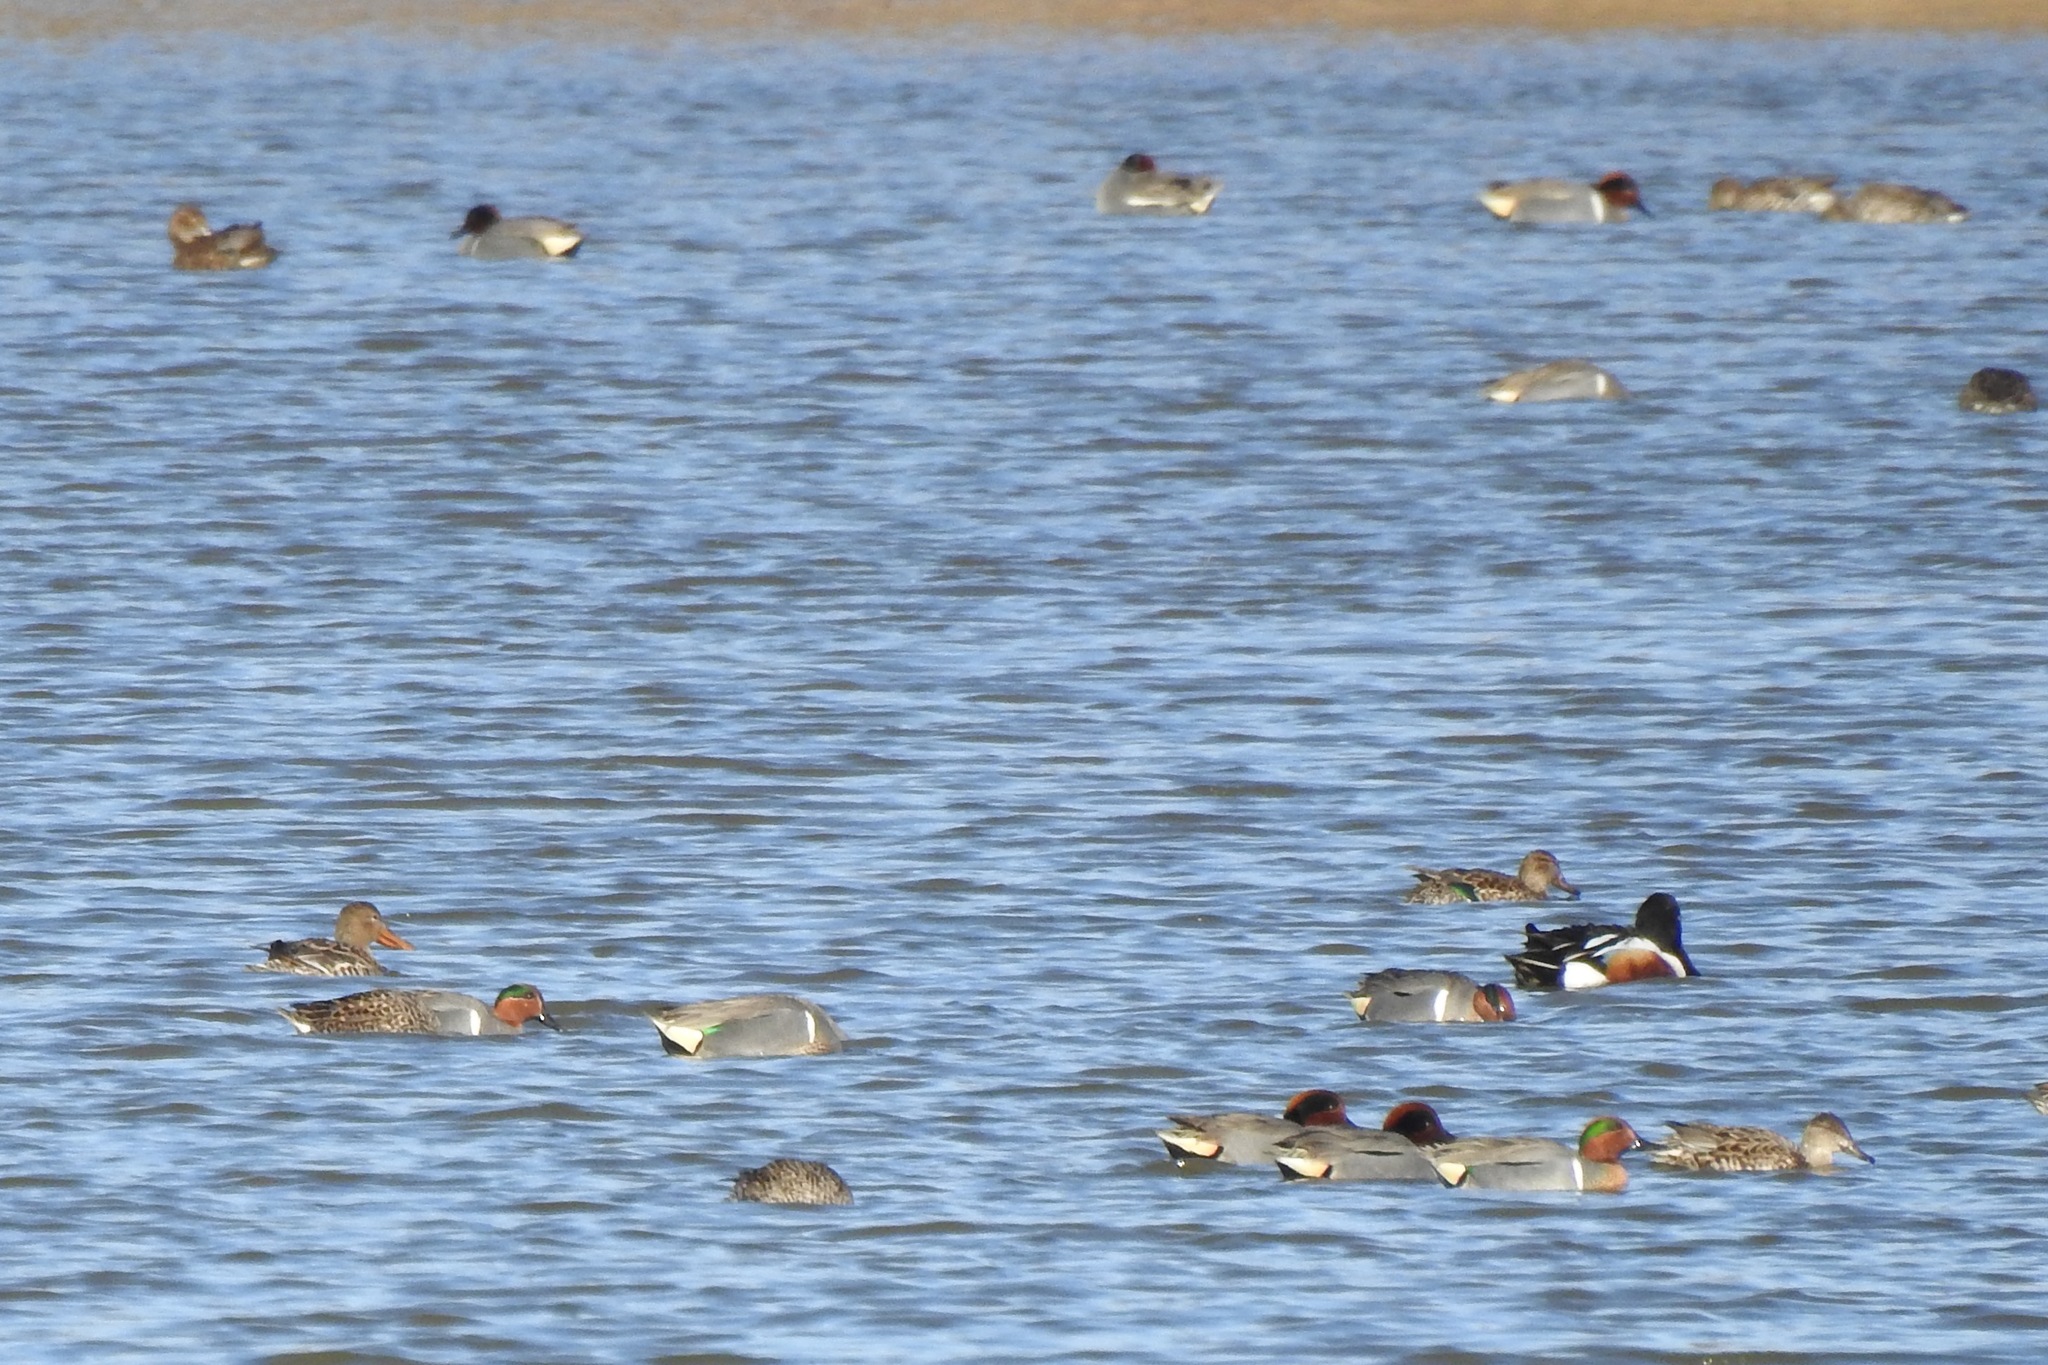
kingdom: Animalia
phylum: Chordata
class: Aves
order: Anseriformes
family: Anatidae
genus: Anas
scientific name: Anas crecca
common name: Eurasian teal
